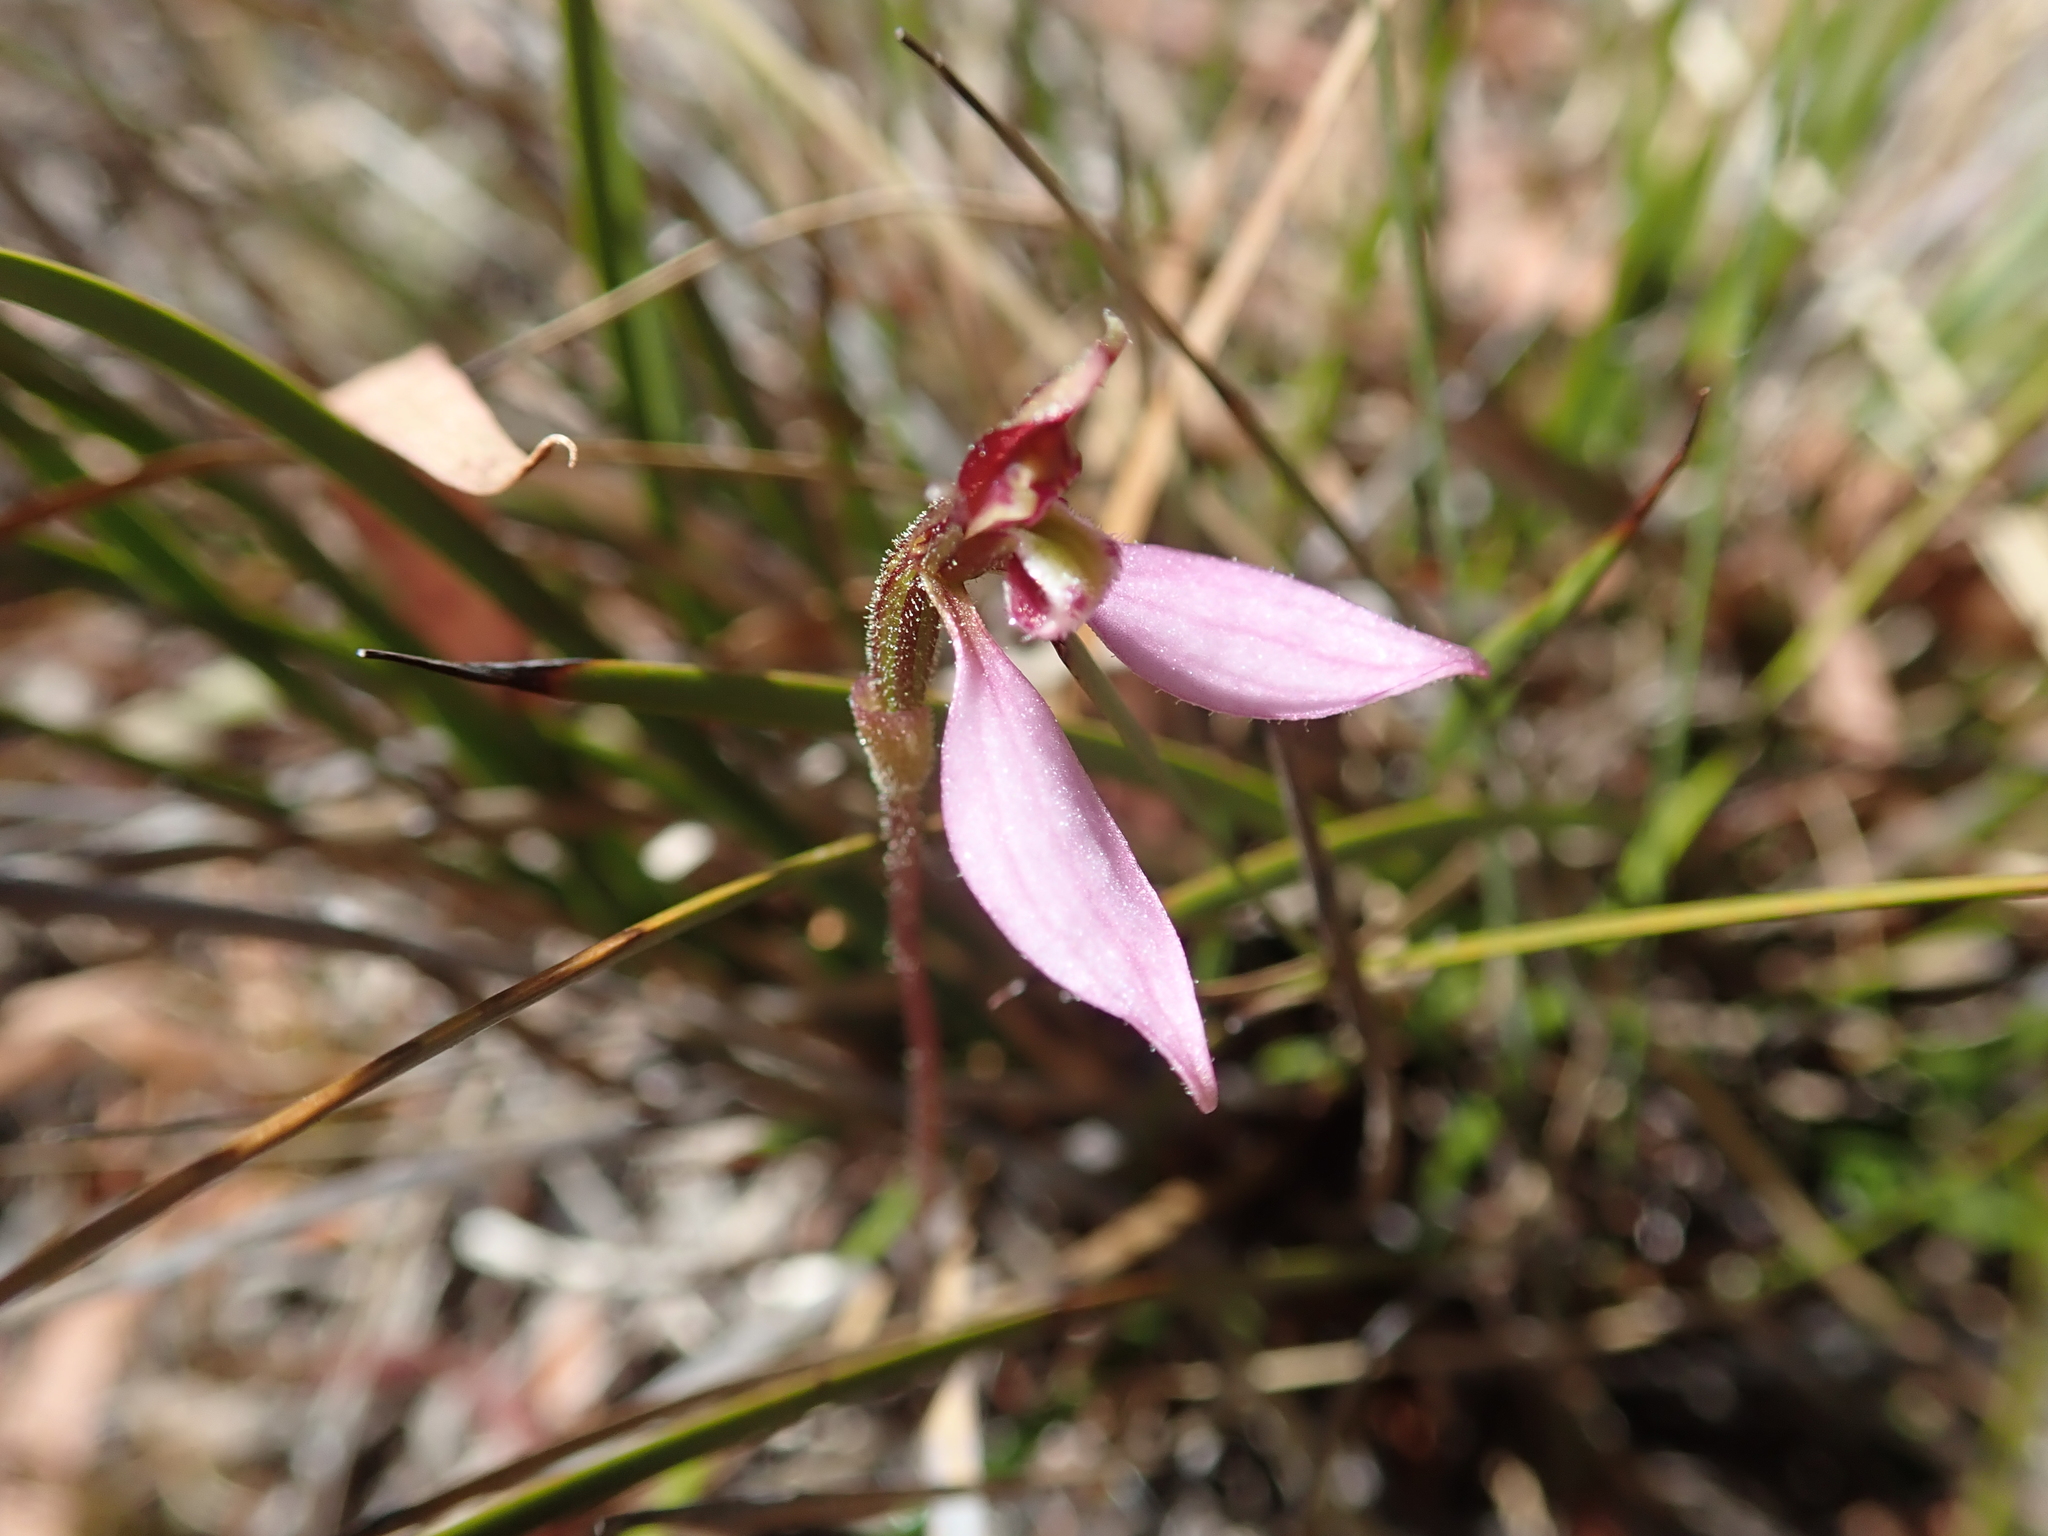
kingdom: Plantae
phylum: Tracheophyta
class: Liliopsida
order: Asparagales
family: Orchidaceae
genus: Eriochilus
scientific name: Eriochilus cucullatus
